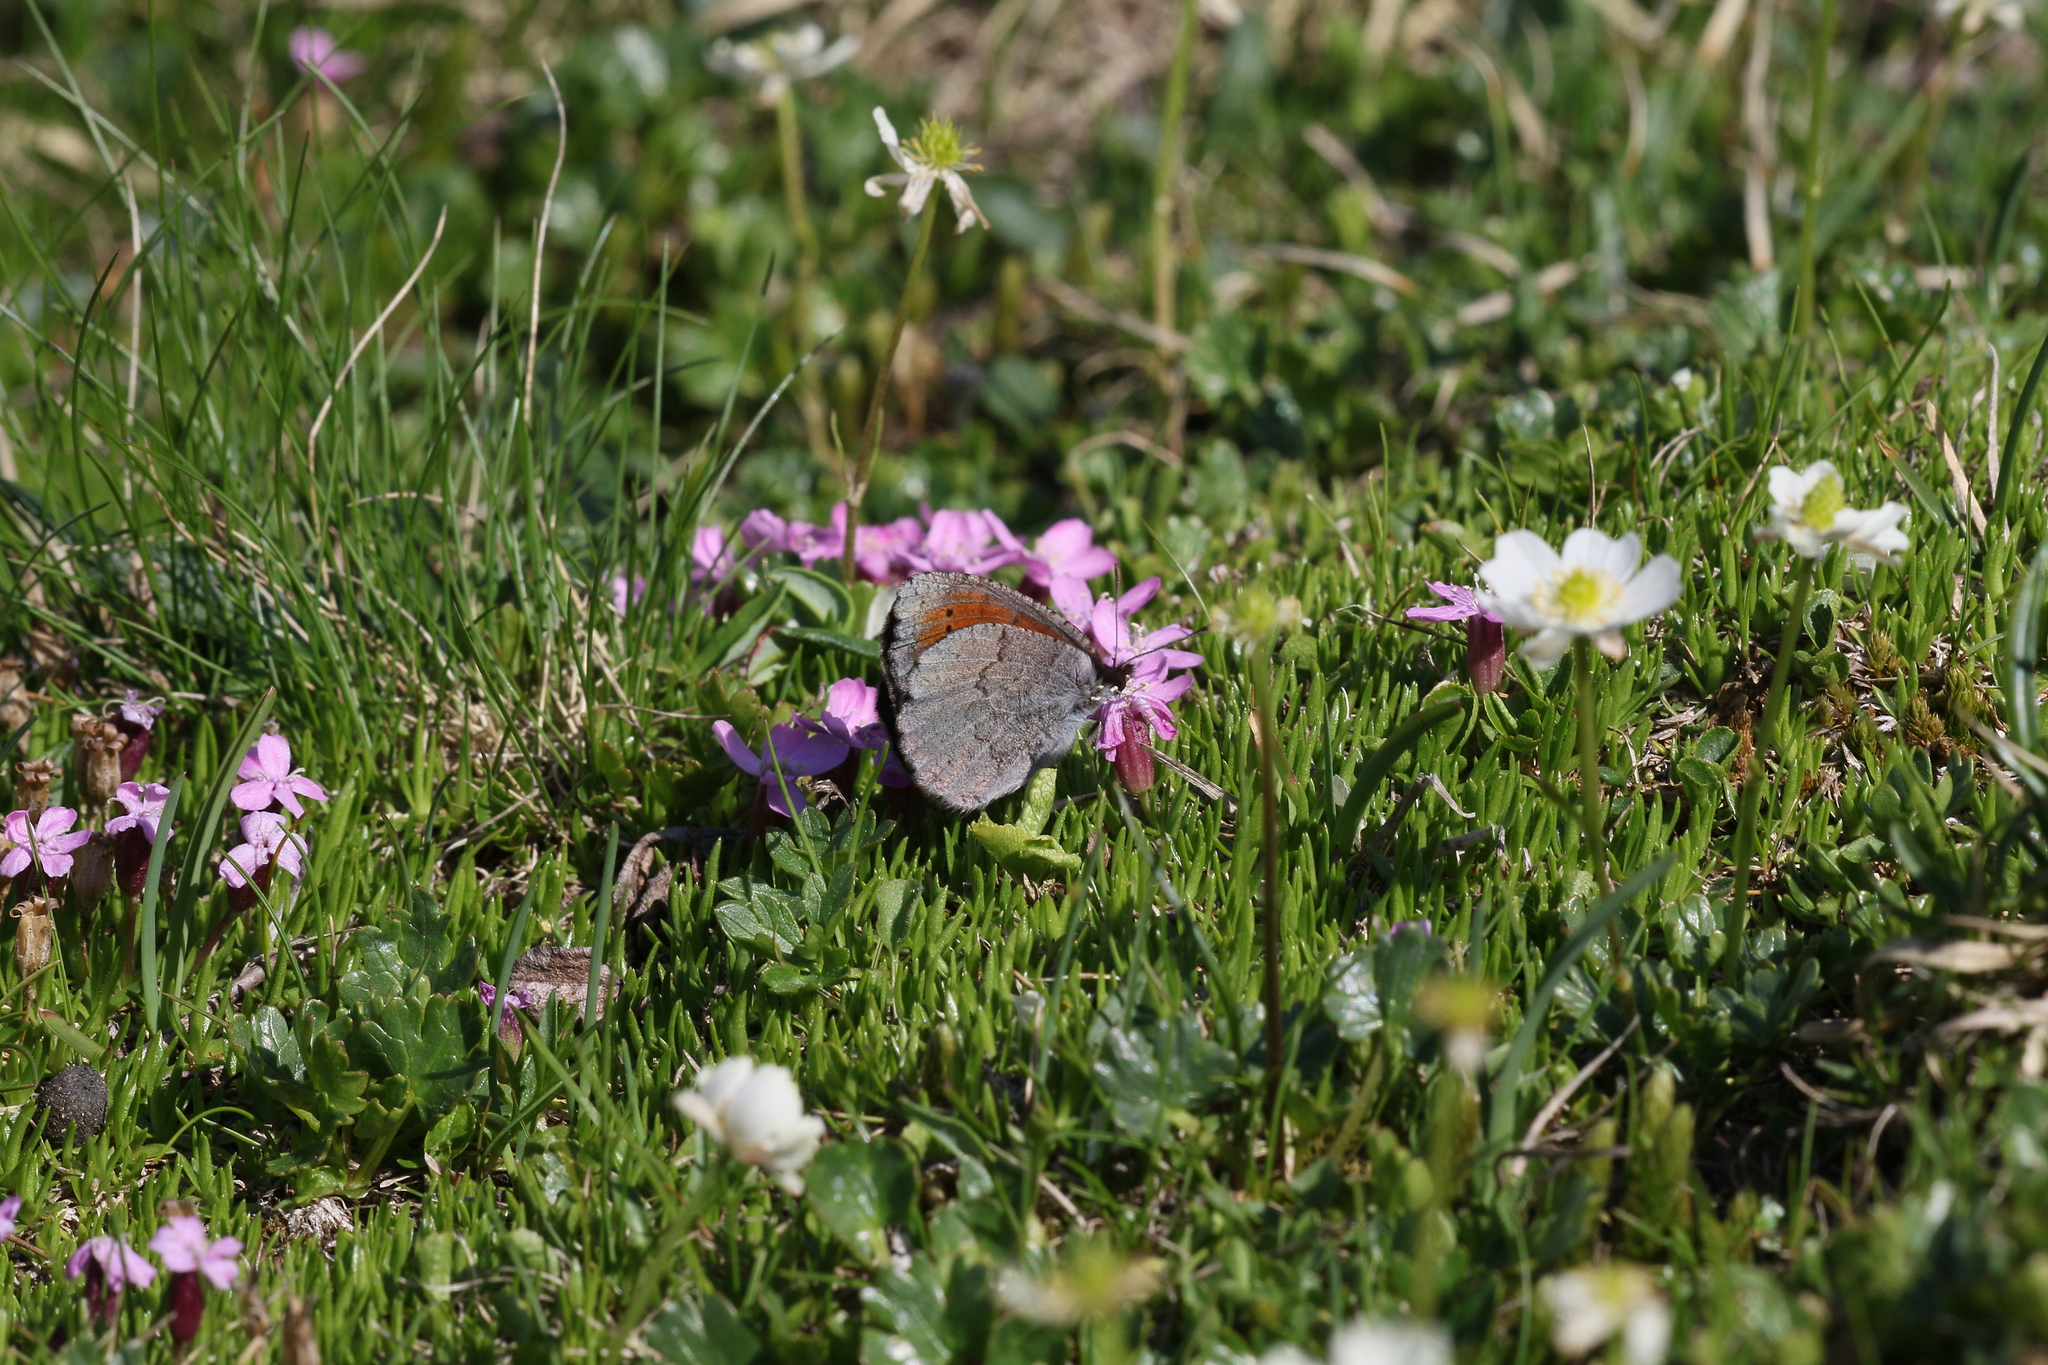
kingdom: Animalia
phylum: Arthropoda
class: Insecta
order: Lepidoptera
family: Nymphalidae
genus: Erebia
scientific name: Erebia pandrose
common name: Dewy ringlet
